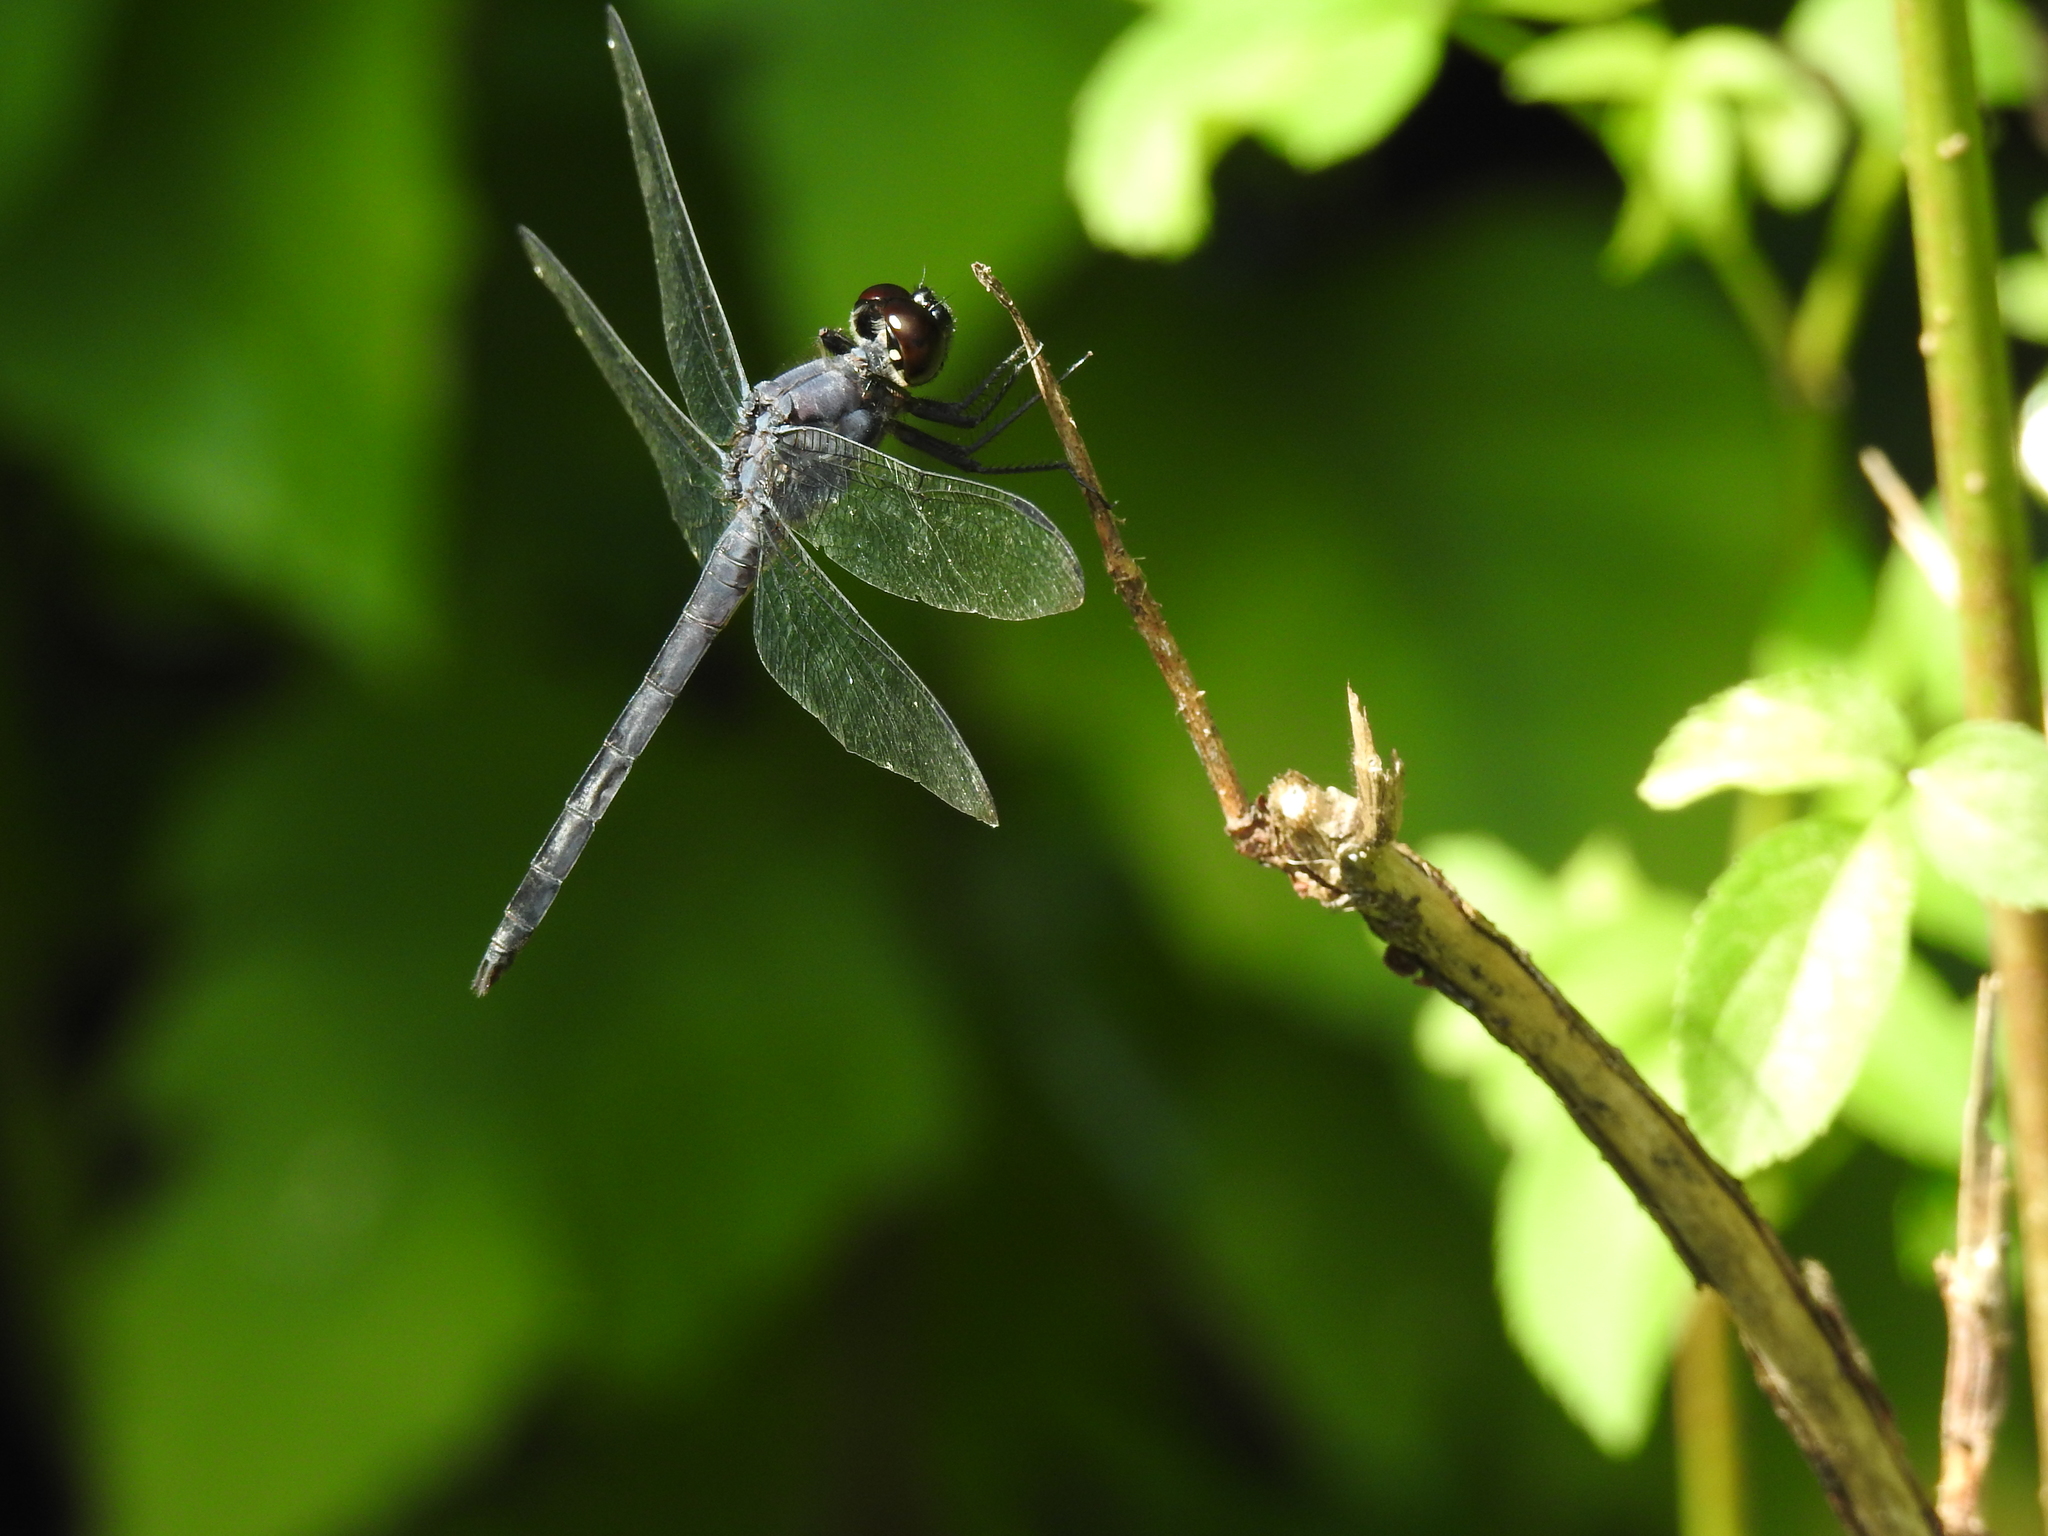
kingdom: Animalia
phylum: Arthropoda
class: Insecta
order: Odonata
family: Libellulidae
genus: Libellula
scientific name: Libellula incesta
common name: Slaty skimmer
